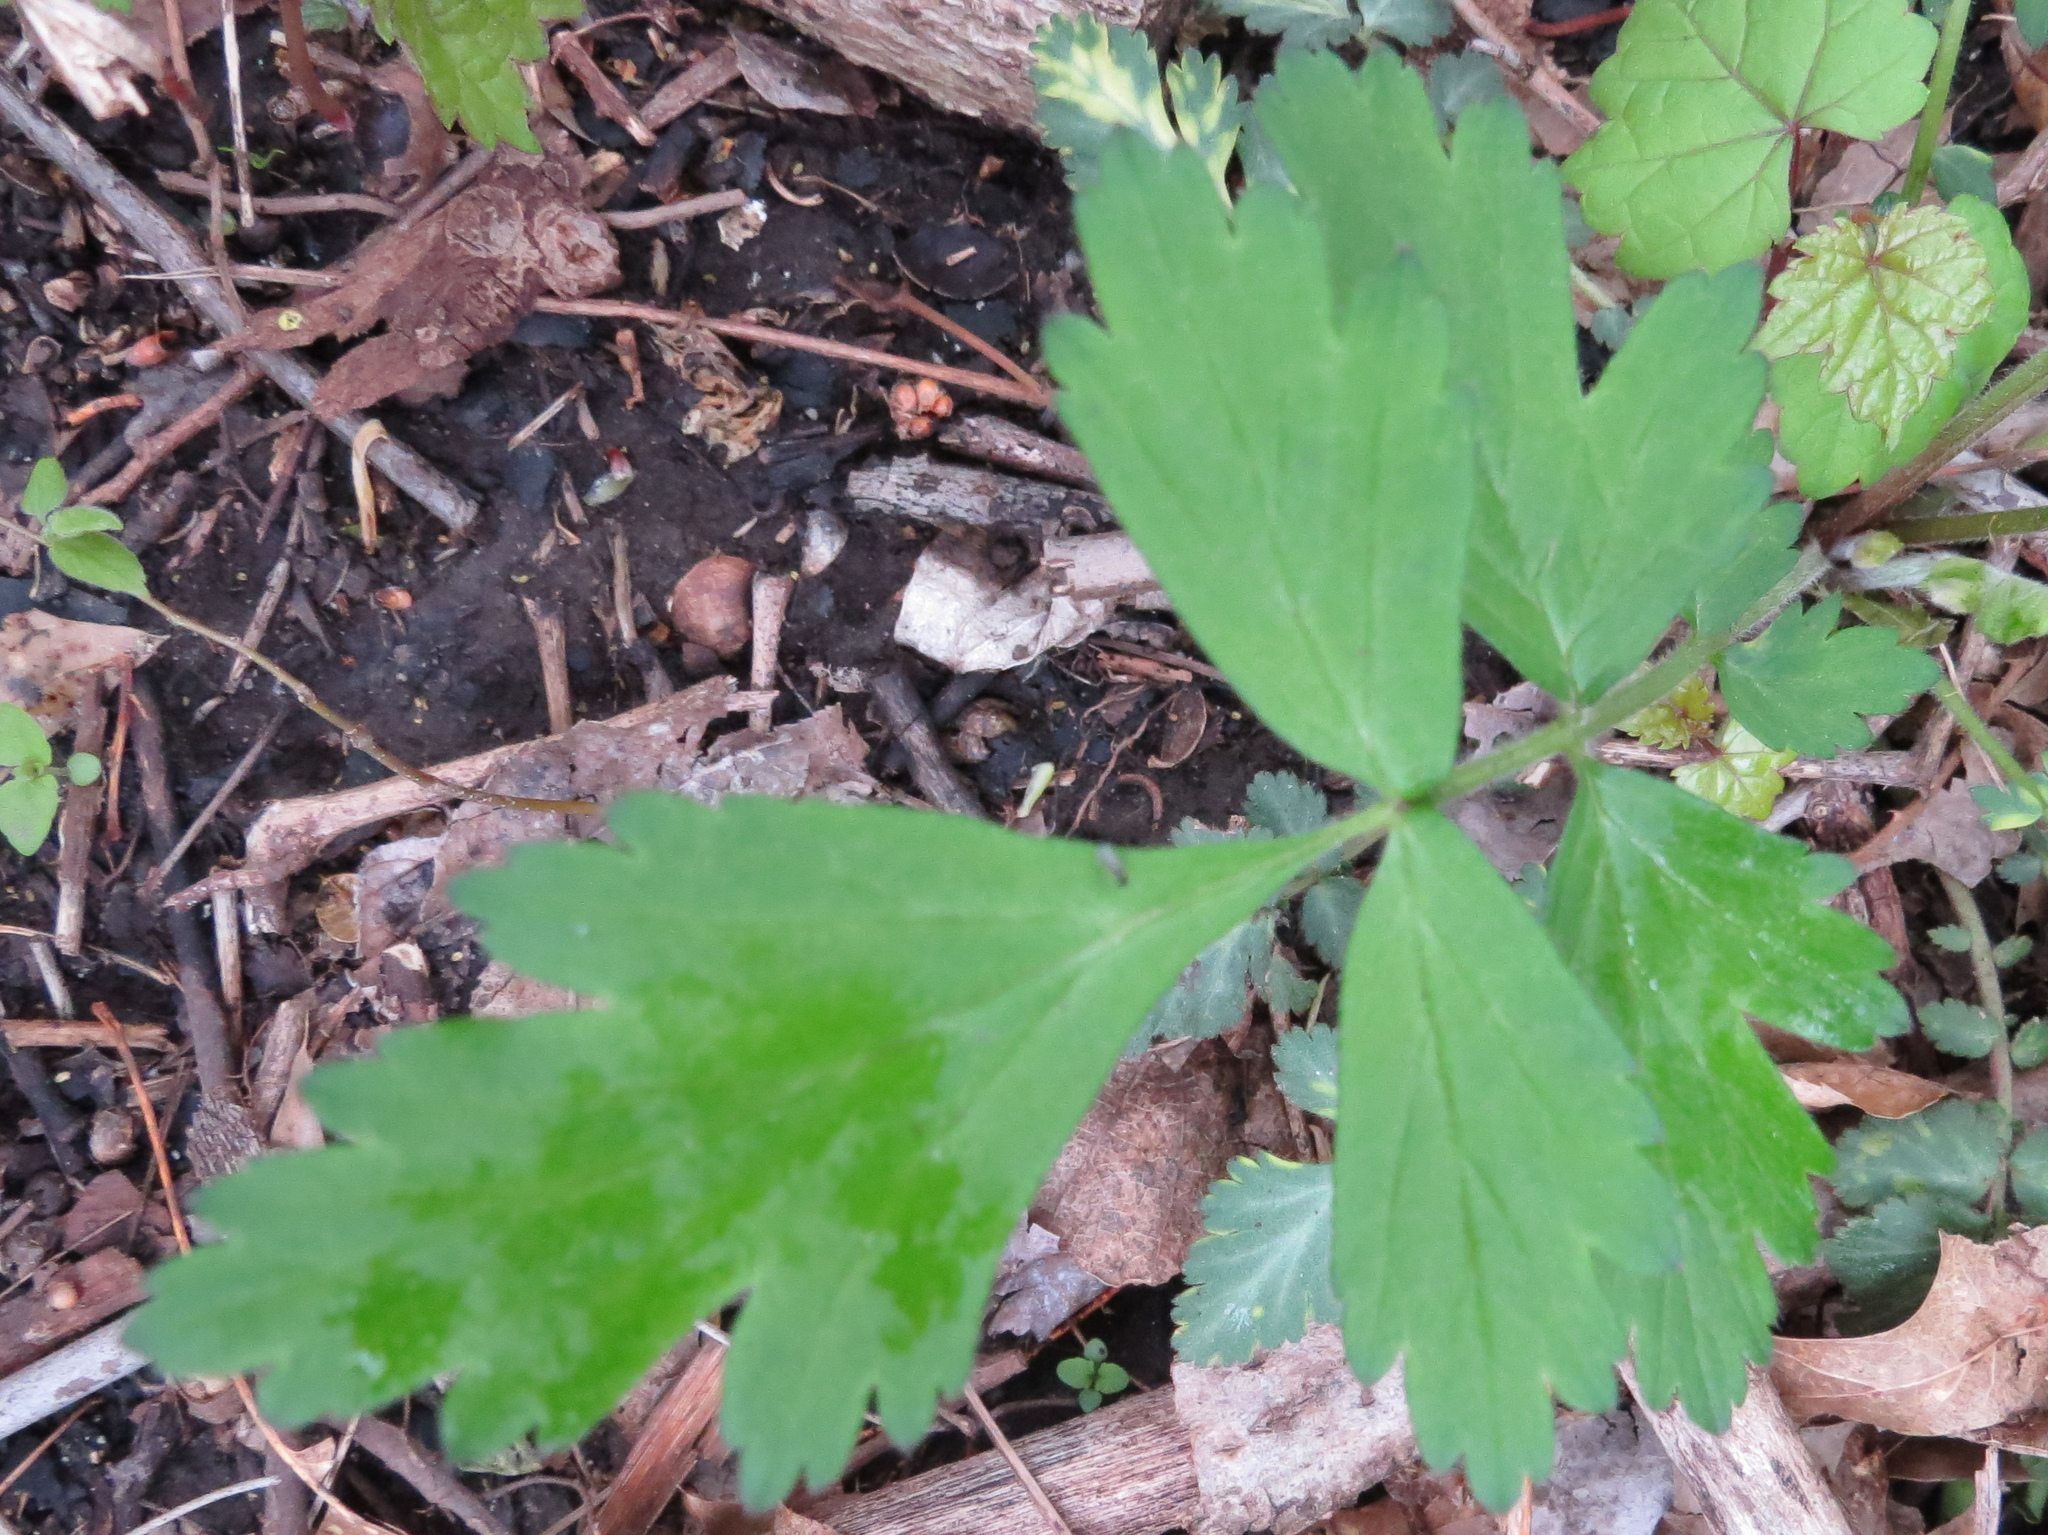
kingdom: Plantae
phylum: Tracheophyta
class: Magnoliopsida
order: Rosales
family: Rosaceae
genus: Geum
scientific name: Geum canadense
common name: White avens
